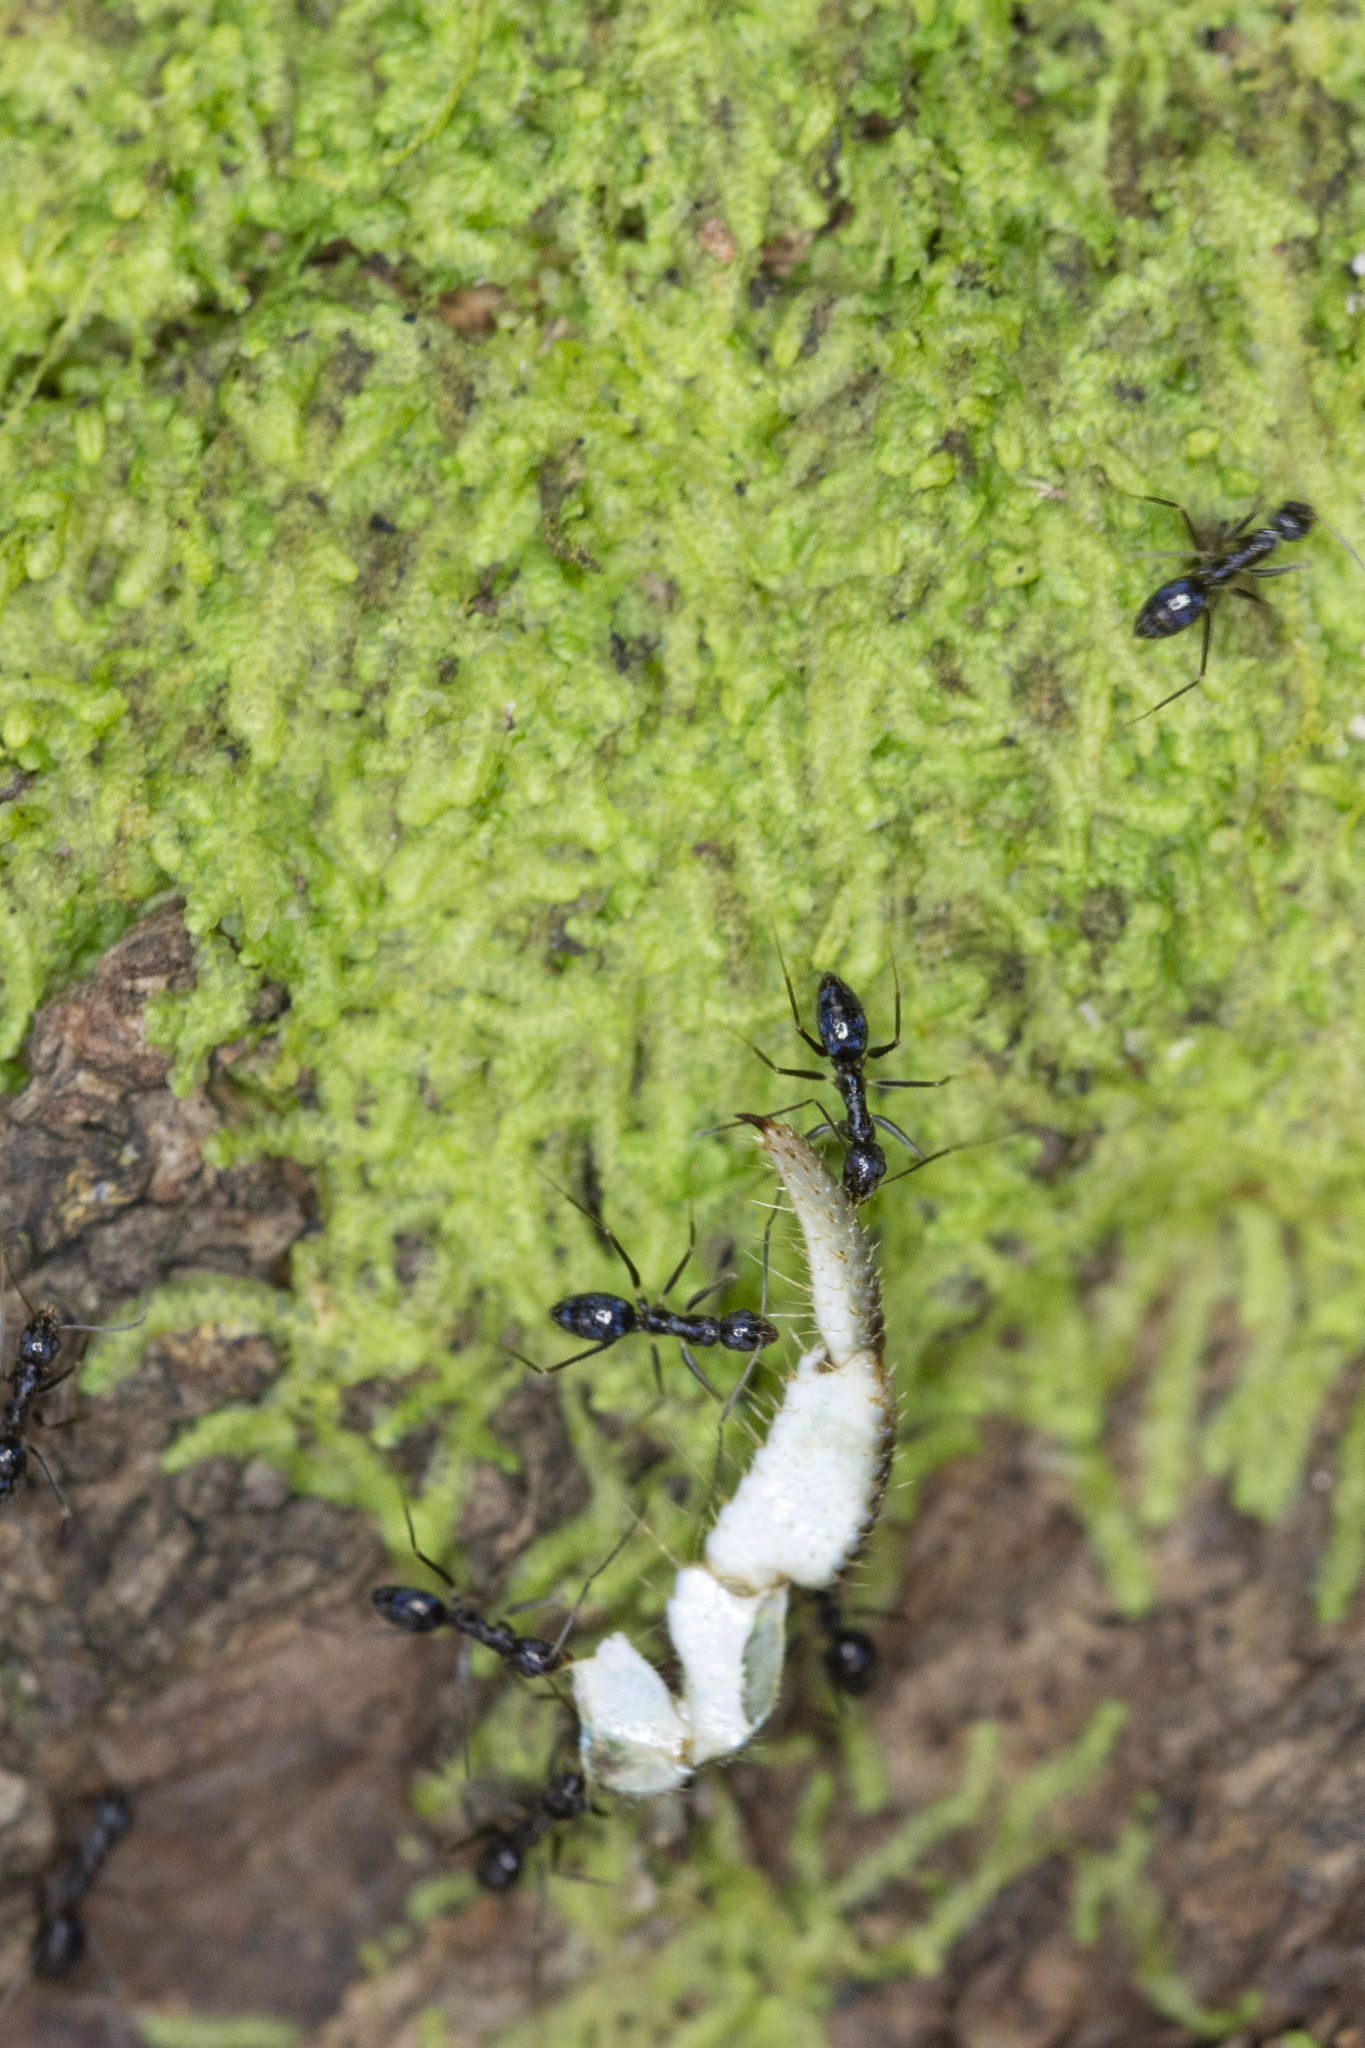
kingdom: Animalia
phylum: Arthropoda
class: Insecta
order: Hymenoptera
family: Formicidae
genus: Paratrechina
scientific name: Paratrechina longicornis
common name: Longhorned crazy ant
